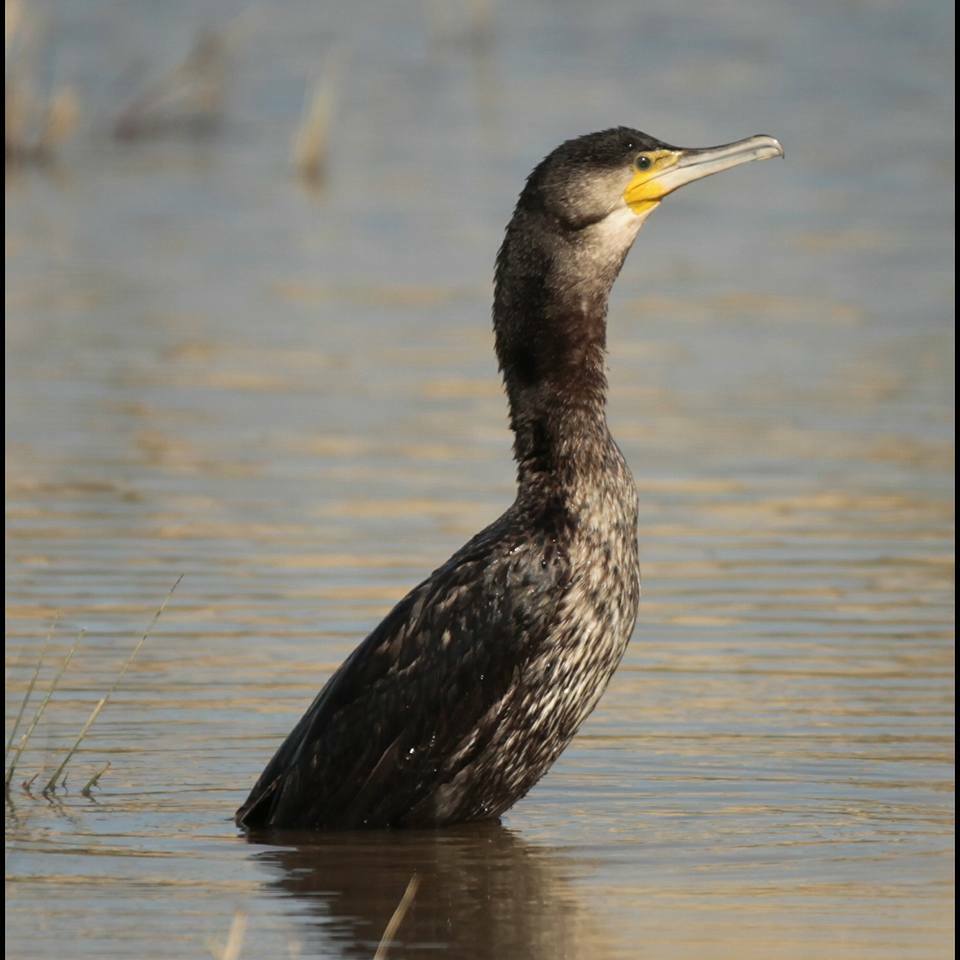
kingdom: Animalia
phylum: Chordata
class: Aves
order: Suliformes
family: Phalacrocoracidae
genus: Phalacrocorax
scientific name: Phalacrocorax carbo
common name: Great cormorant
